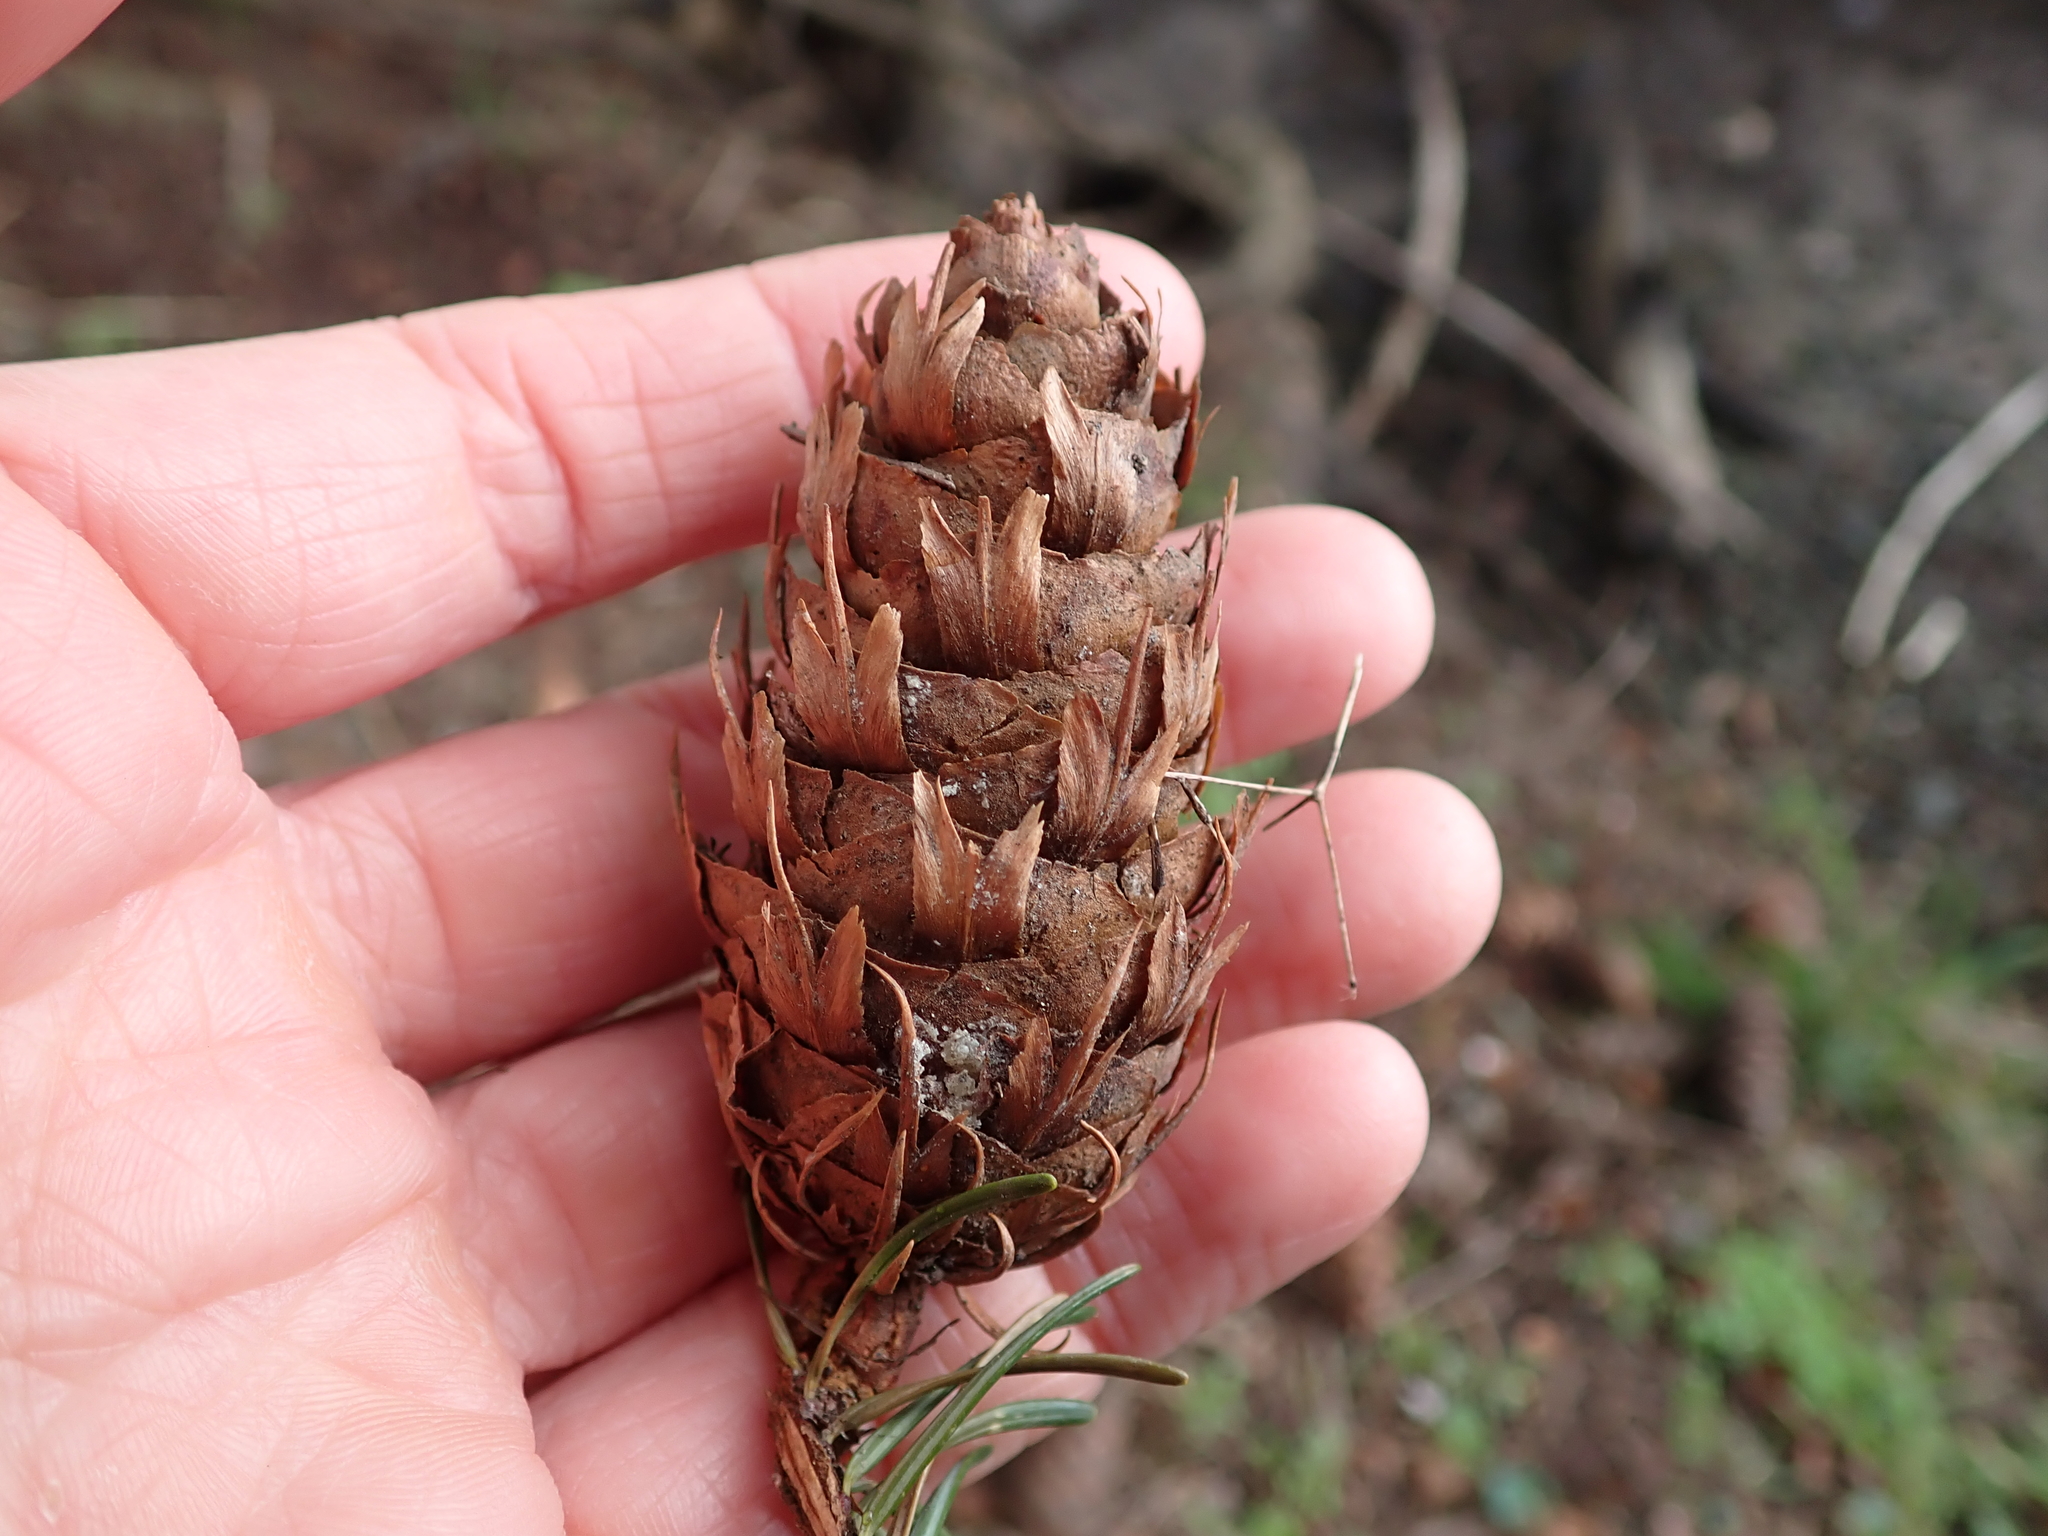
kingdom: Plantae
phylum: Tracheophyta
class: Pinopsida
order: Pinales
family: Pinaceae
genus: Pseudotsuga
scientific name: Pseudotsuga menziesii
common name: Douglas fir
